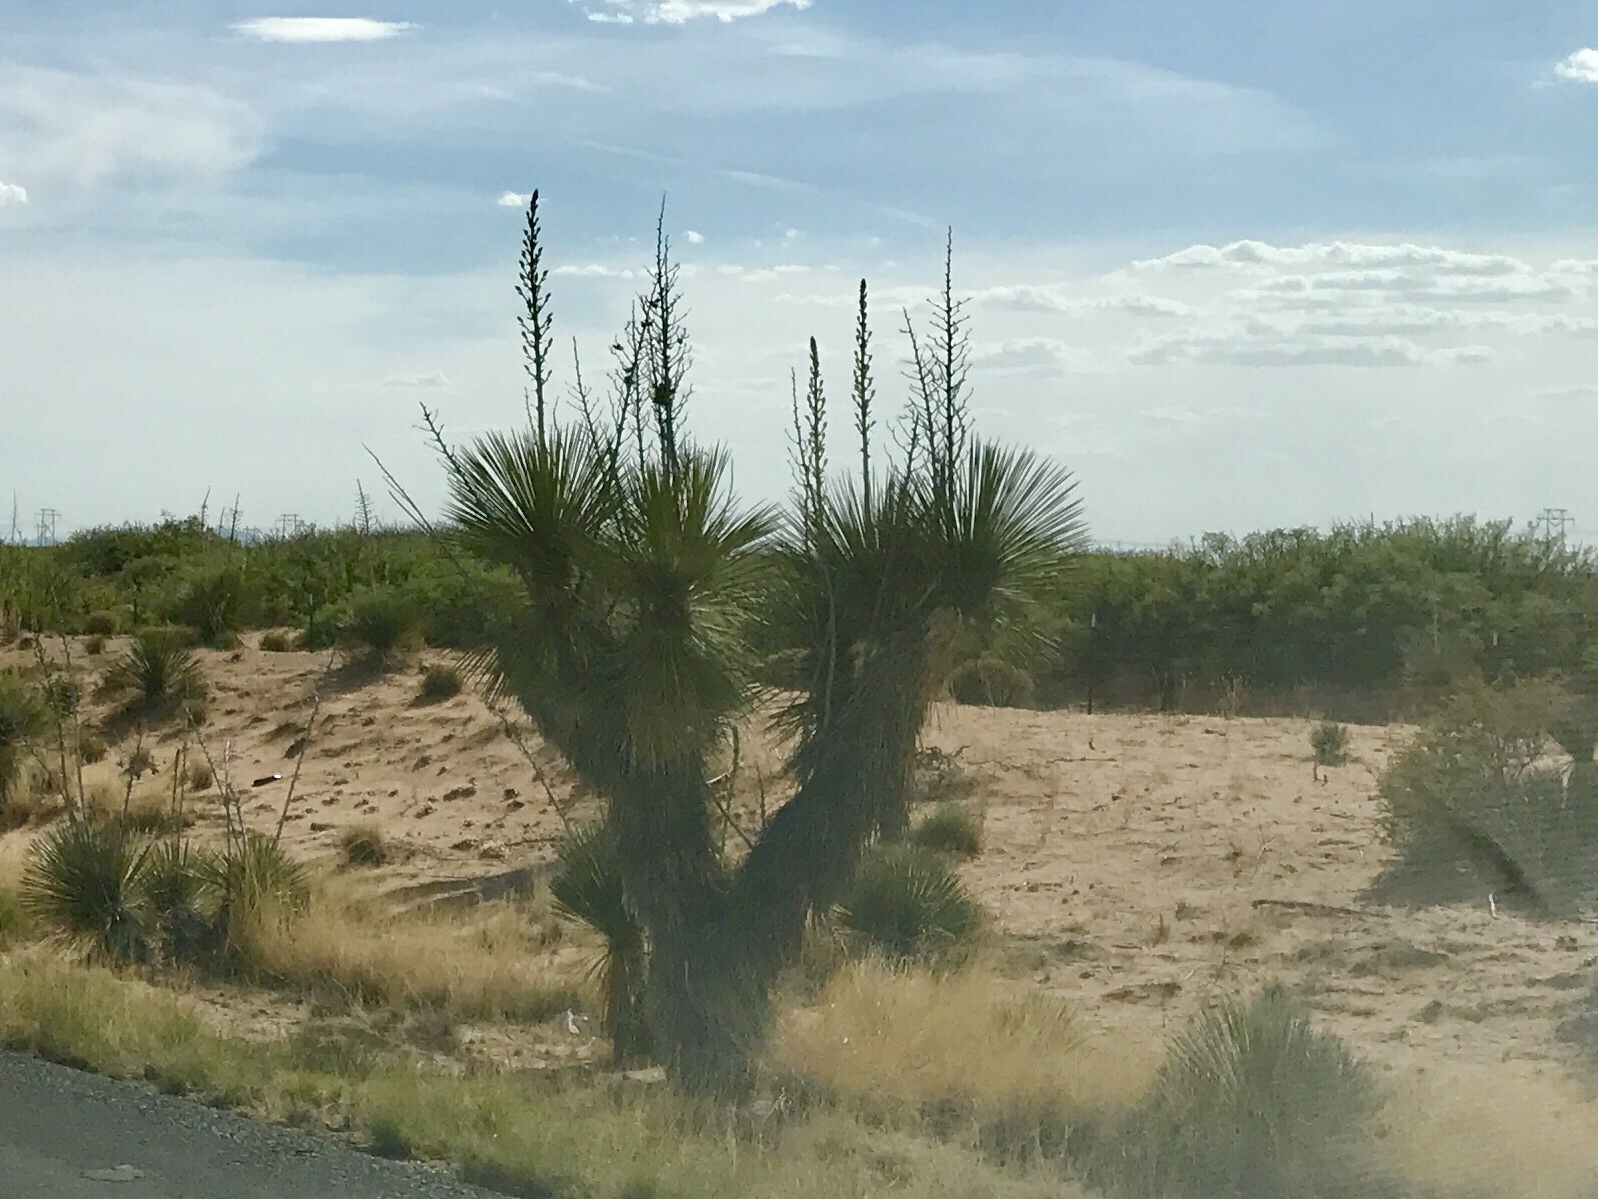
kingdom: Plantae
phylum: Tracheophyta
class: Liliopsida
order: Asparagales
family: Asparagaceae
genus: Yucca
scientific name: Yucca elata
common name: Palmella
